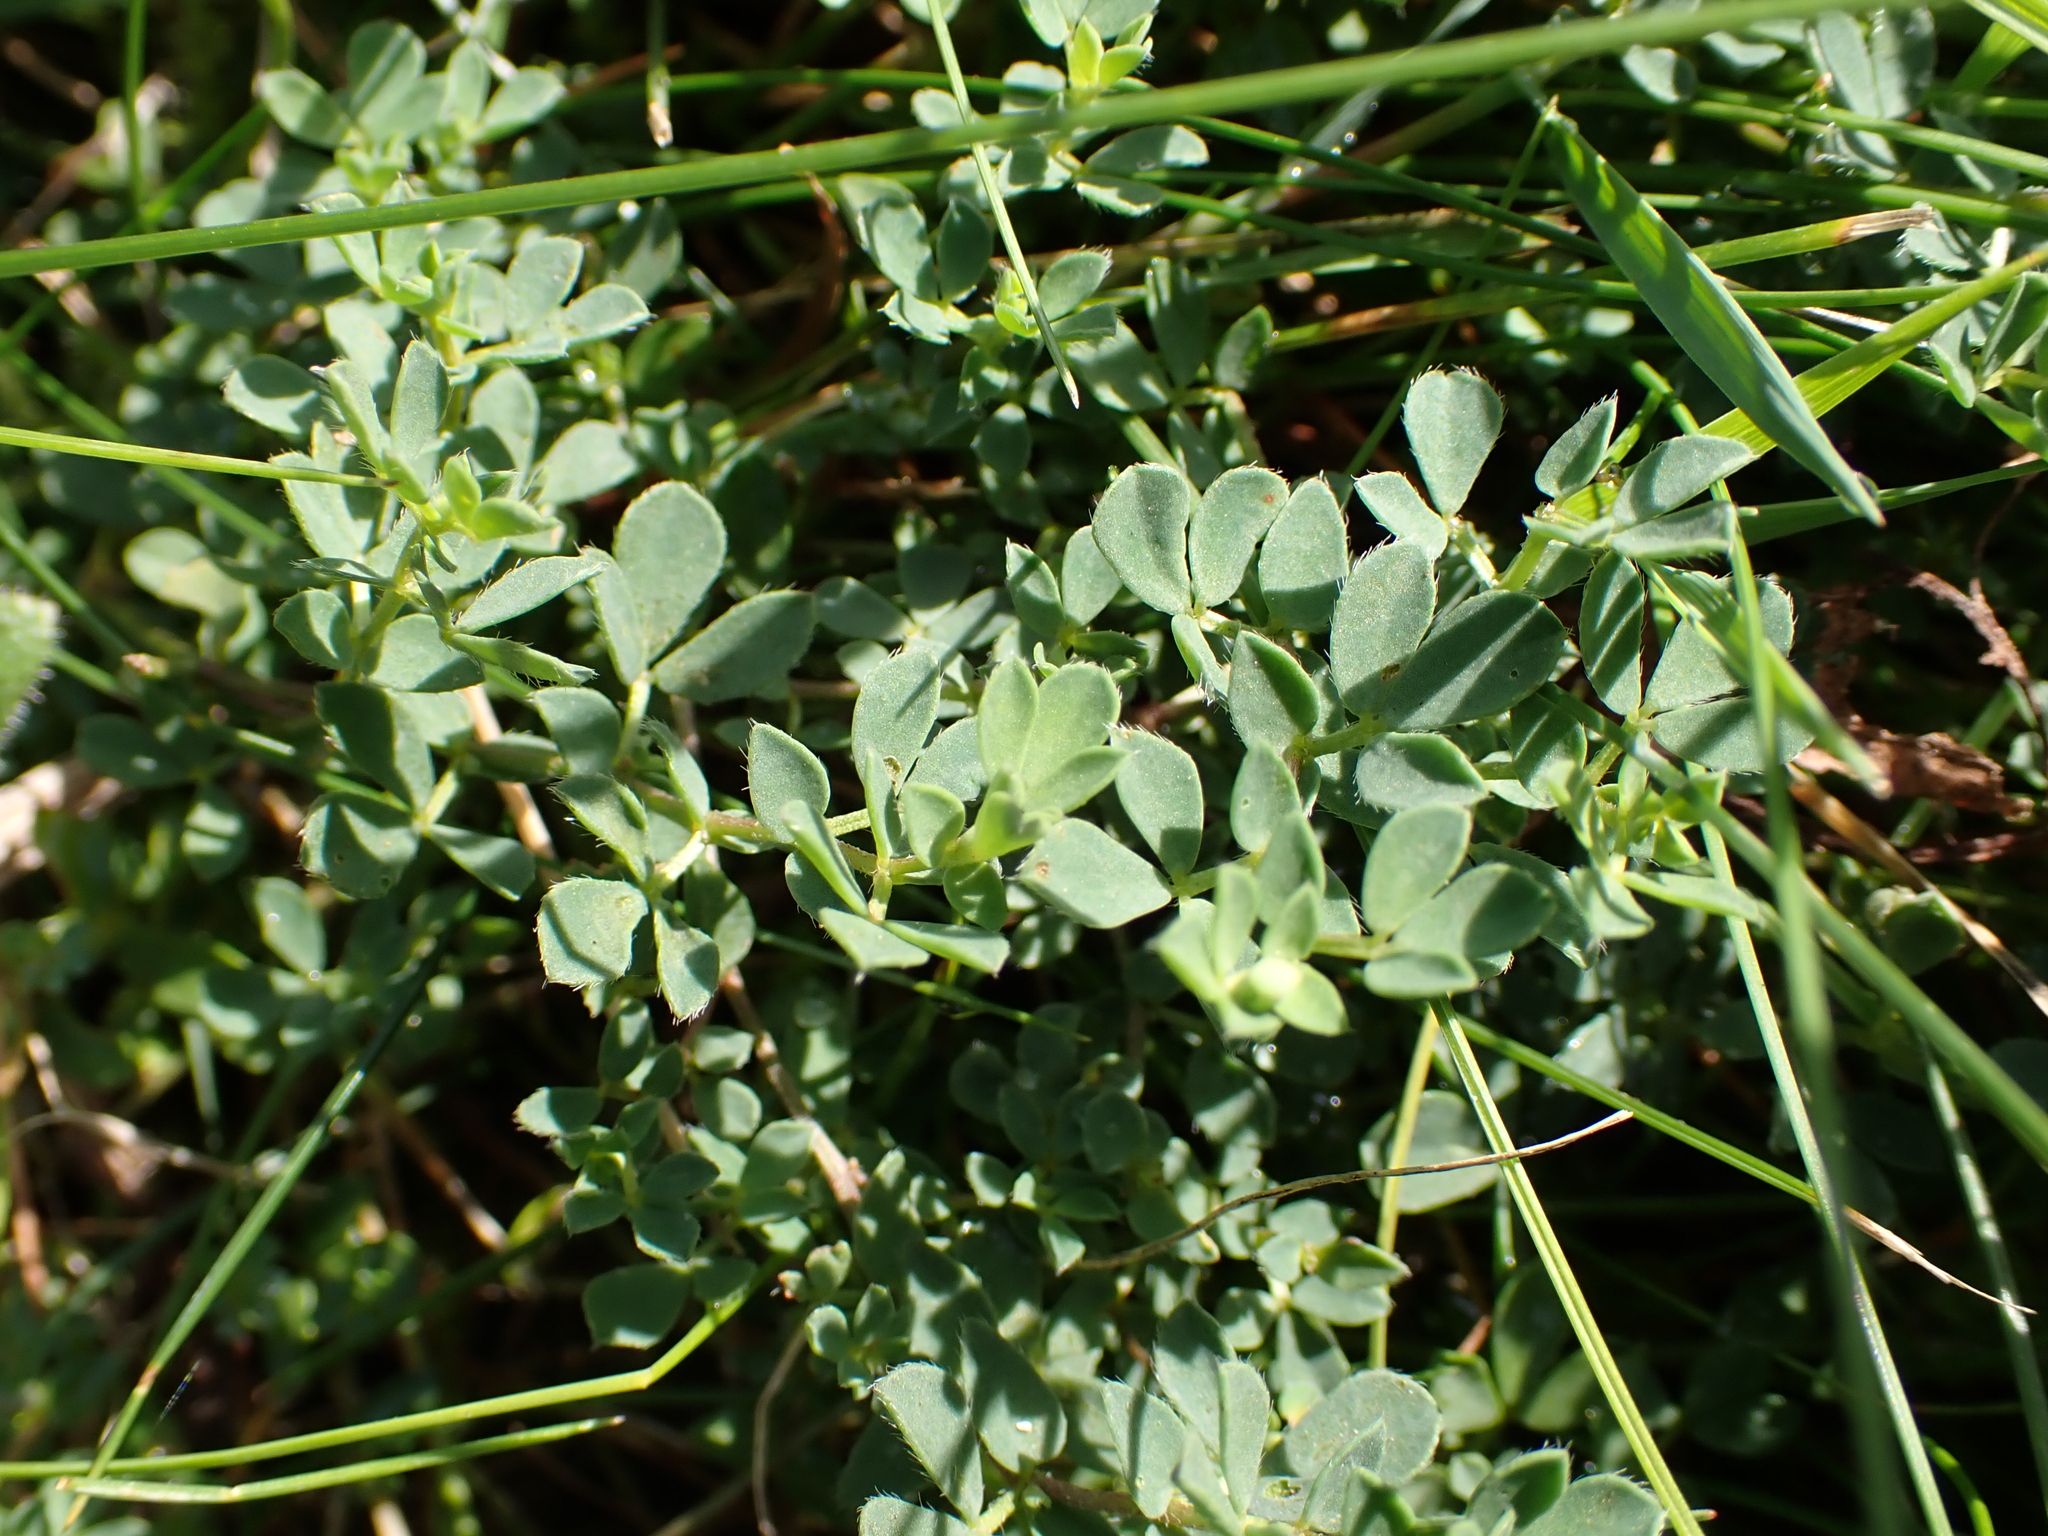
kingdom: Plantae
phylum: Tracheophyta
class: Magnoliopsida
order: Fabales
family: Fabaceae
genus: Lotus
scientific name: Lotus corniculatus
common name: Common bird's-foot-trefoil
